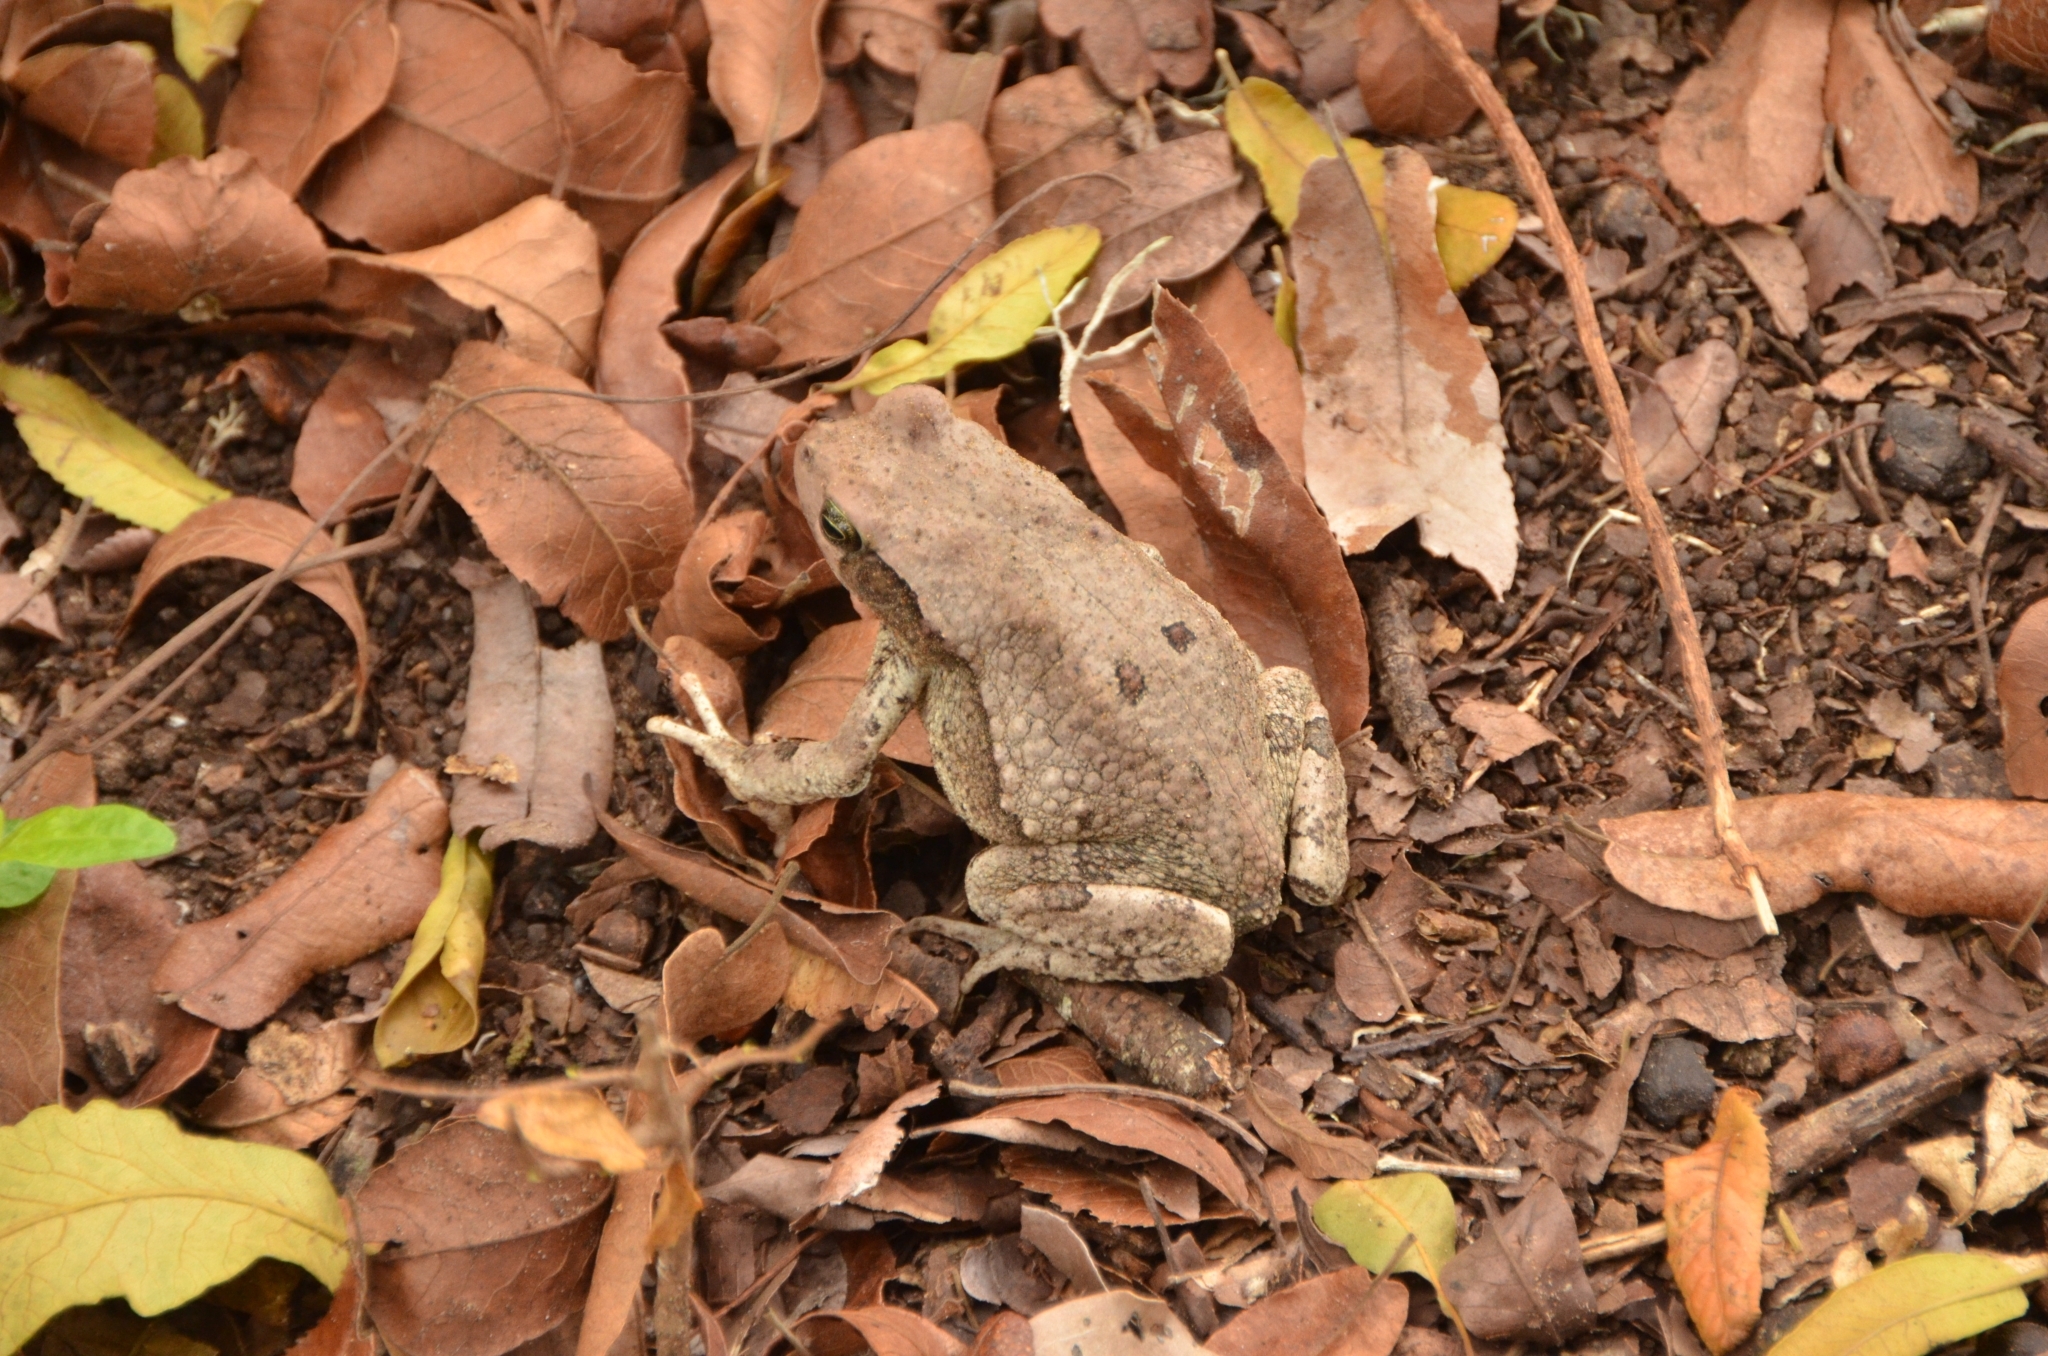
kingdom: Animalia
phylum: Chordata
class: Amphibia
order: Anura
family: Bufonidae
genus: Schismaderma
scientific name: Schismaderma carens
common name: African split-skin toad
